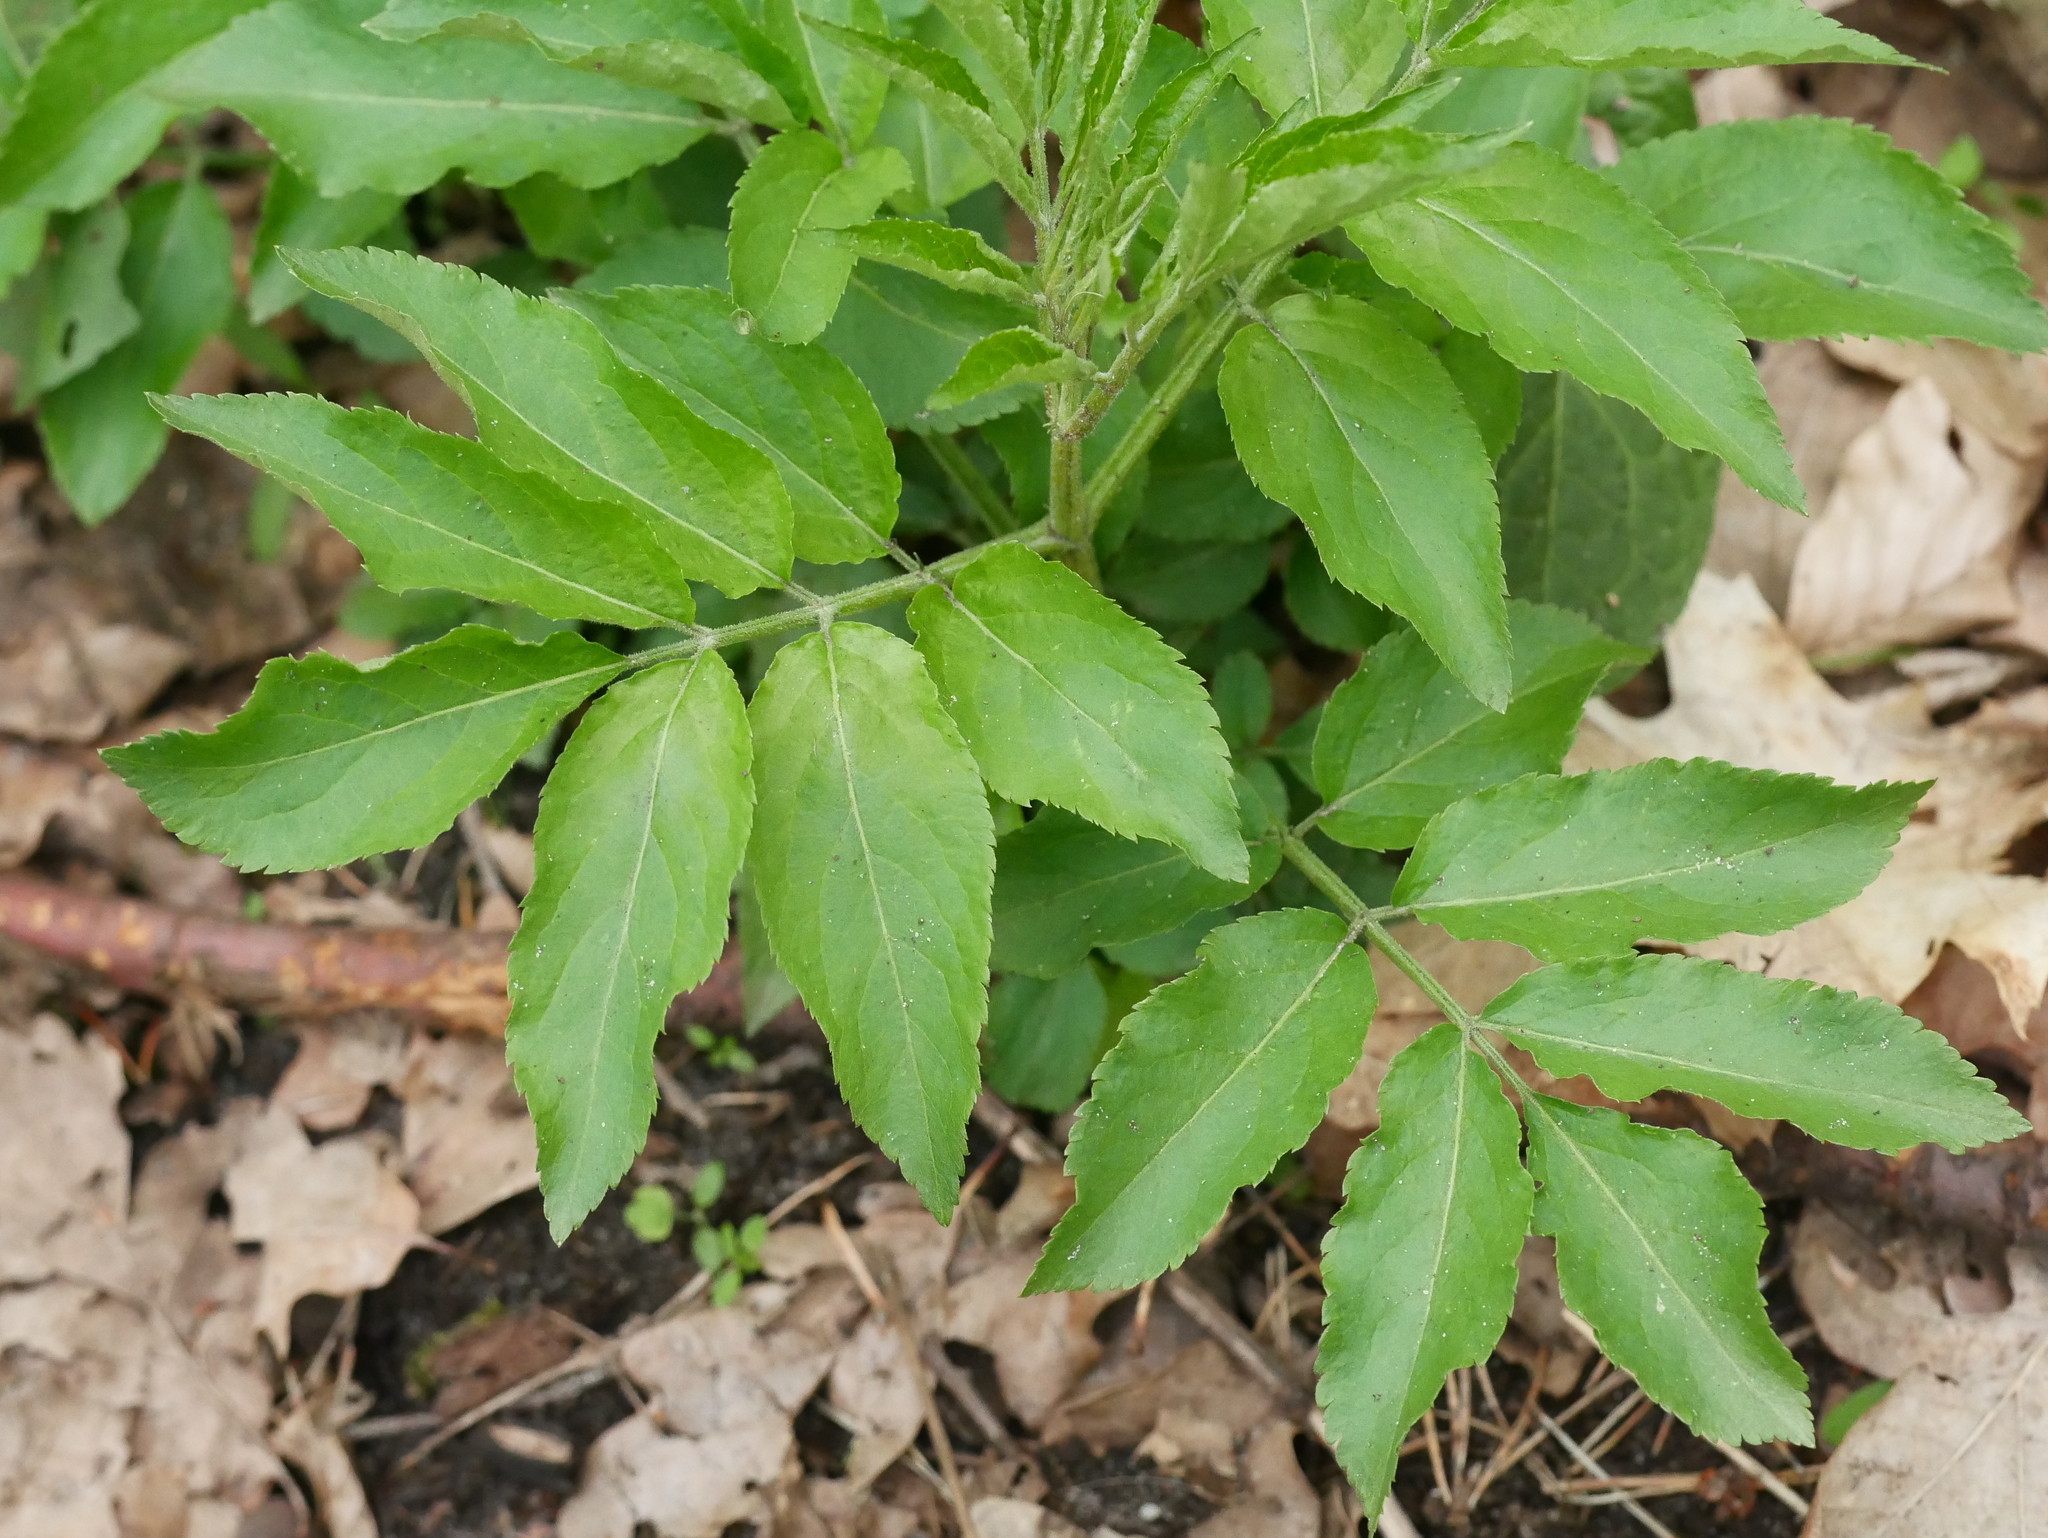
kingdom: Plantae
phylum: Tracheophyta
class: Magnoliopsida
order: Dipsacales
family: Viburnaceae
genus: Sambucus
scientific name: Sambucus nigra
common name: Elder
